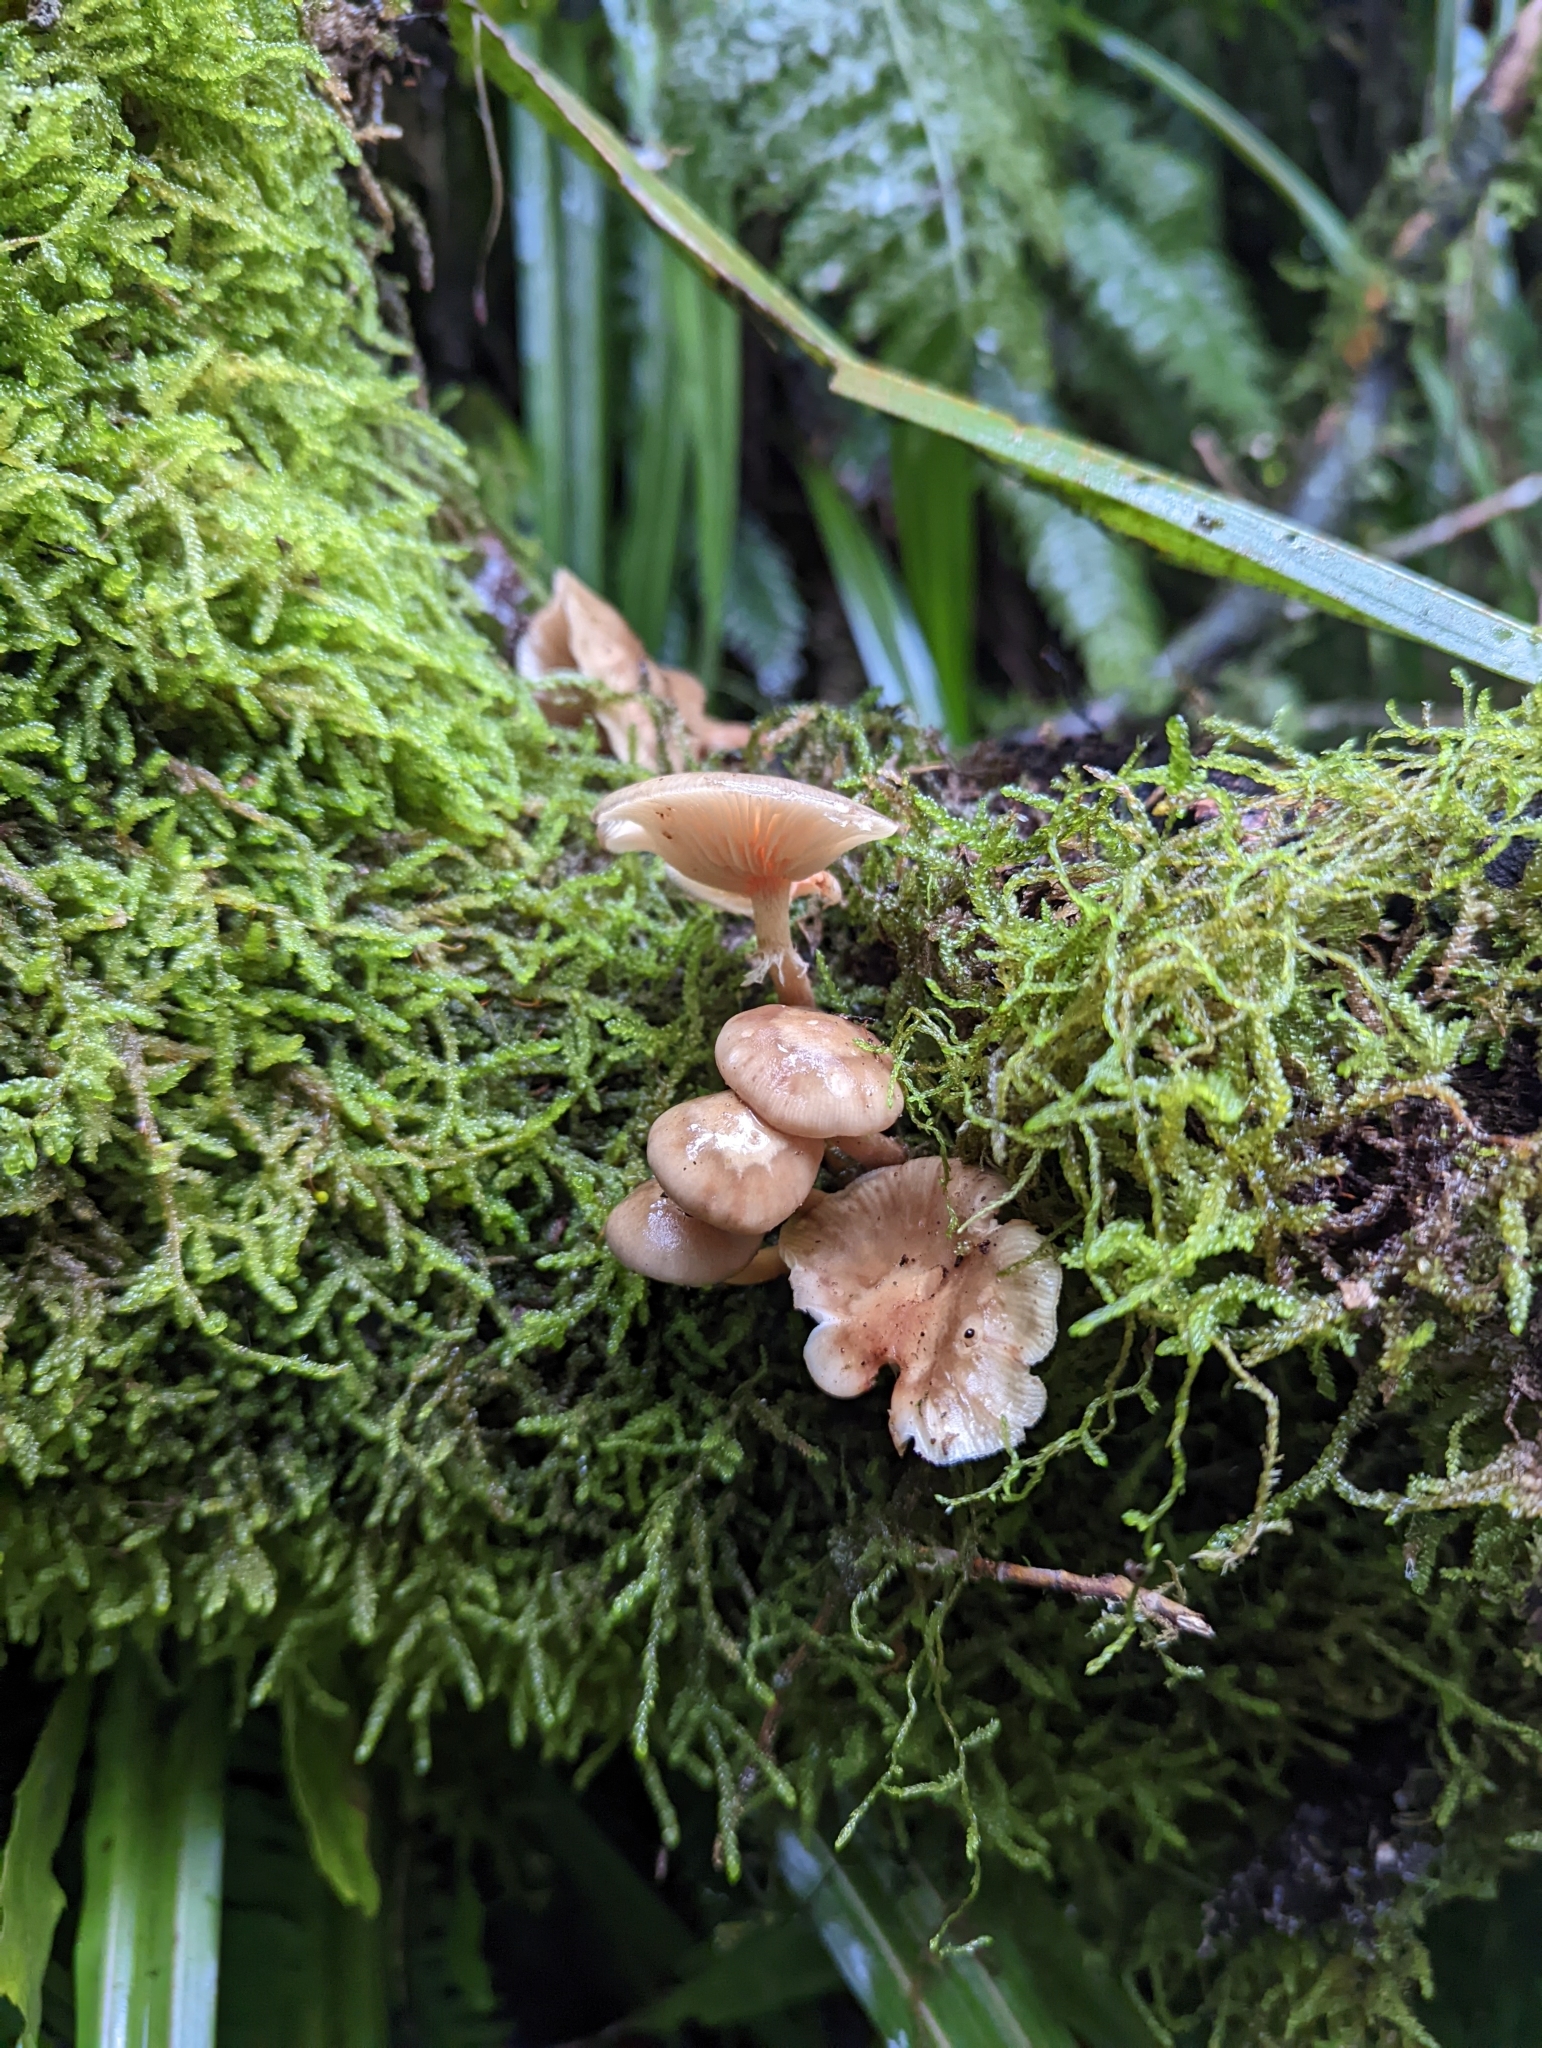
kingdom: Fungi
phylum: Basidiomycota
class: Agaricomycetes
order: Agaricales
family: Physalacriaceae
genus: Armillaria
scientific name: Armillaria novae-zelandiae
